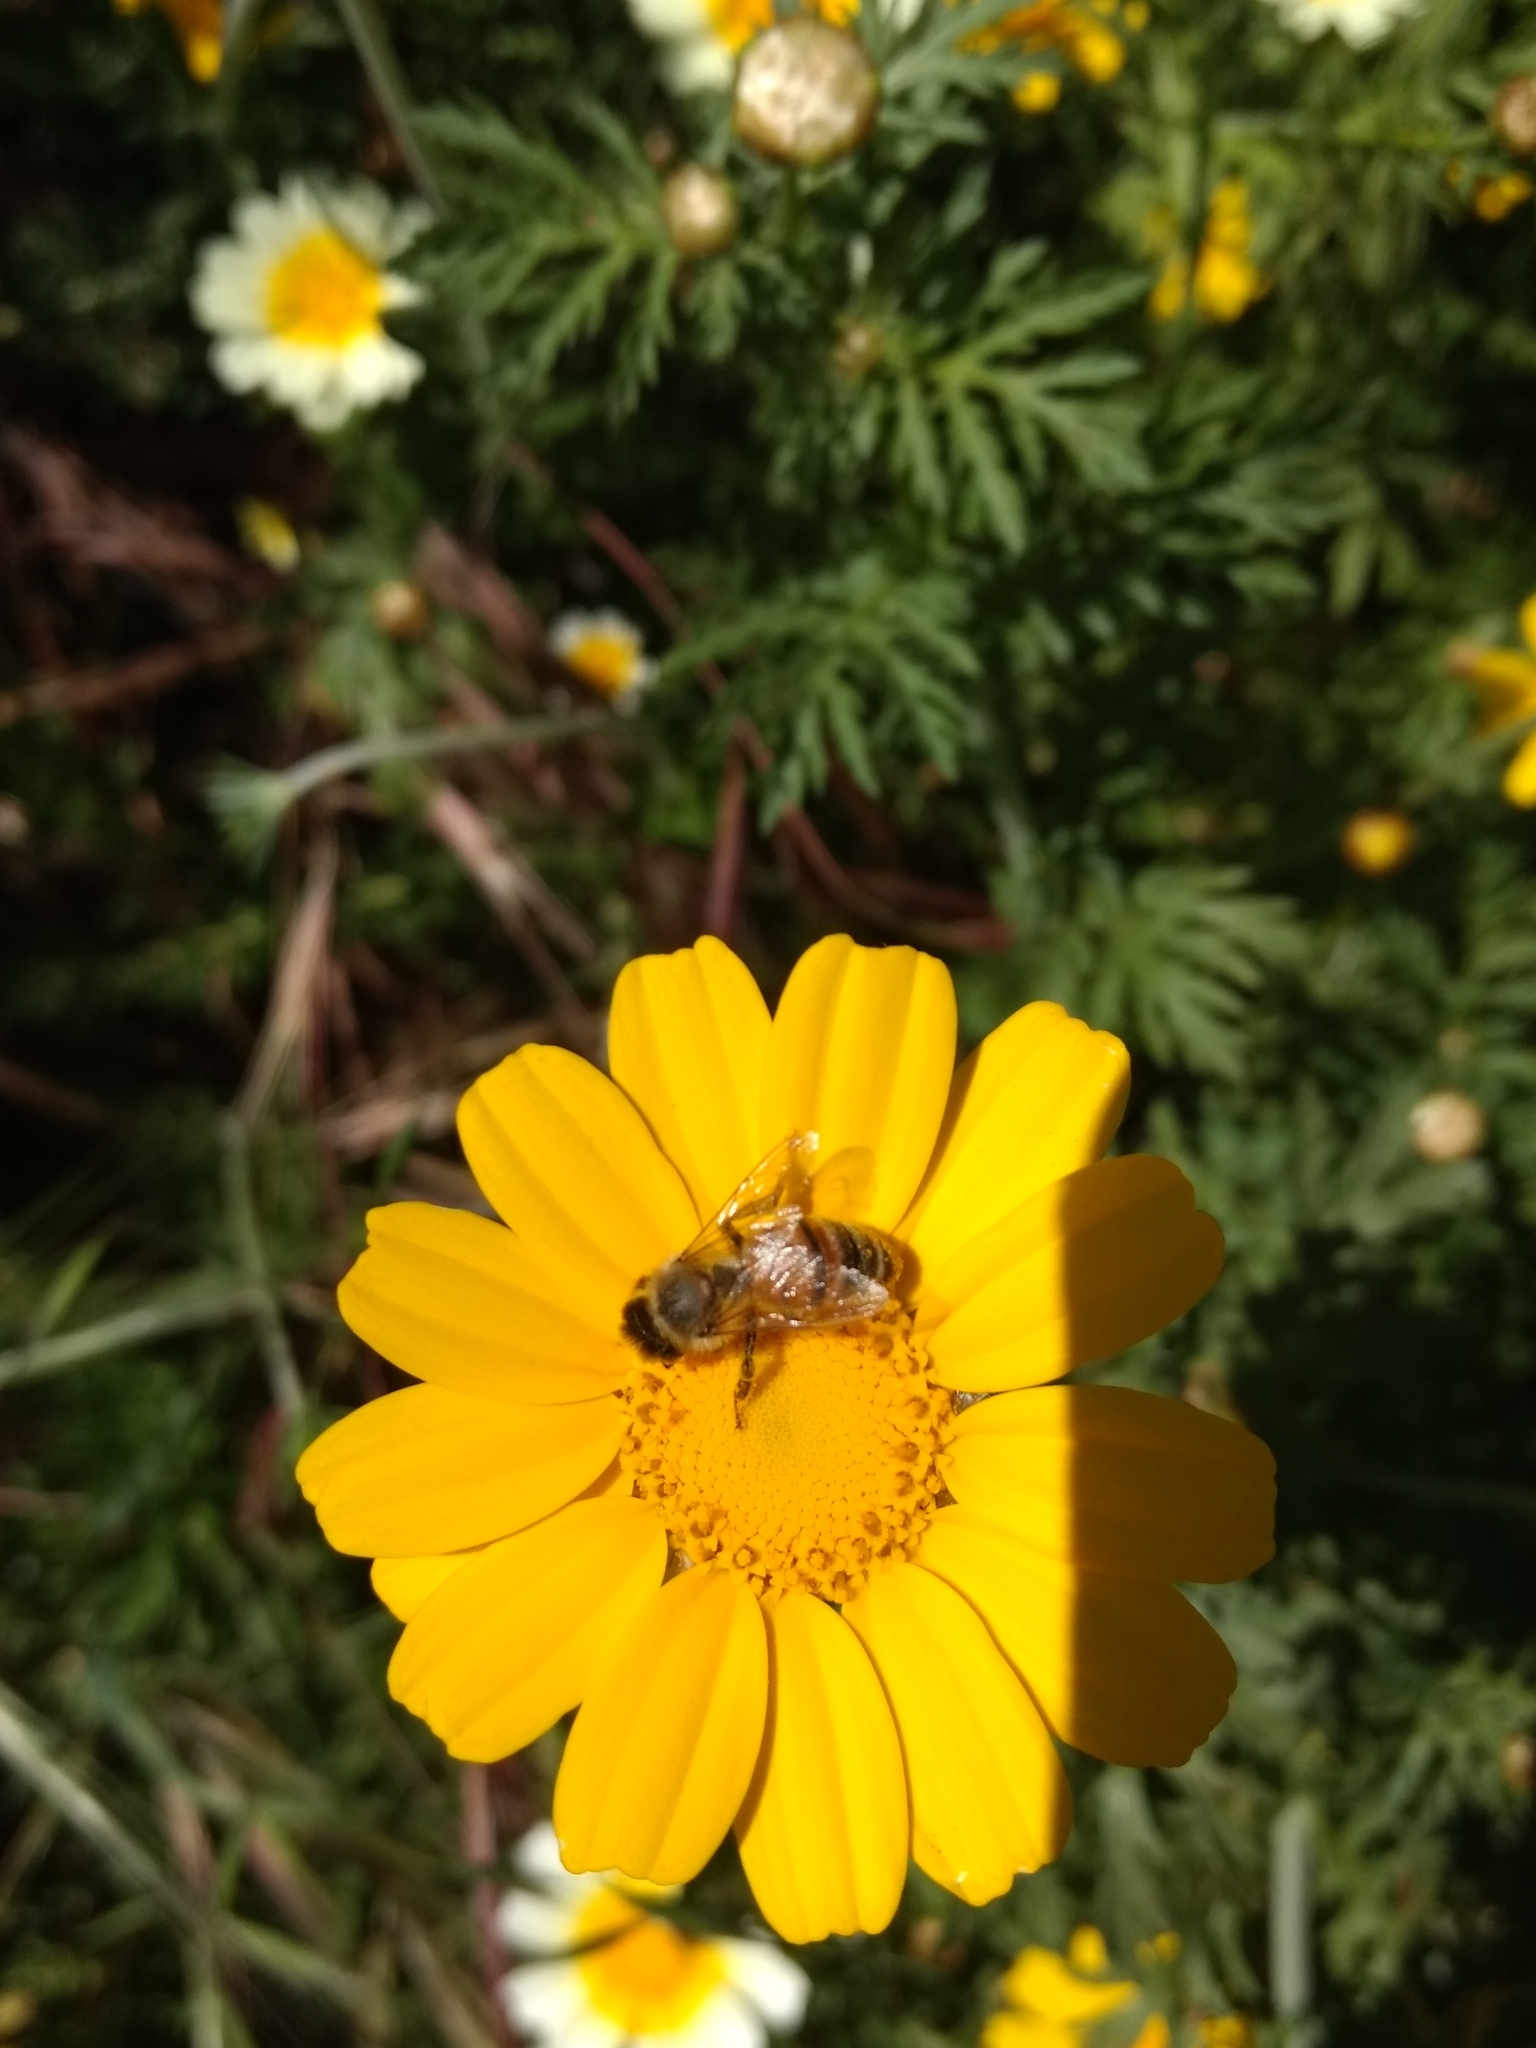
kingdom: Animalia
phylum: Arthropoda
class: Insecta
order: Hymenoptera
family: Apidae
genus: Apis
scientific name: Apis mellifera
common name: Honey bee
